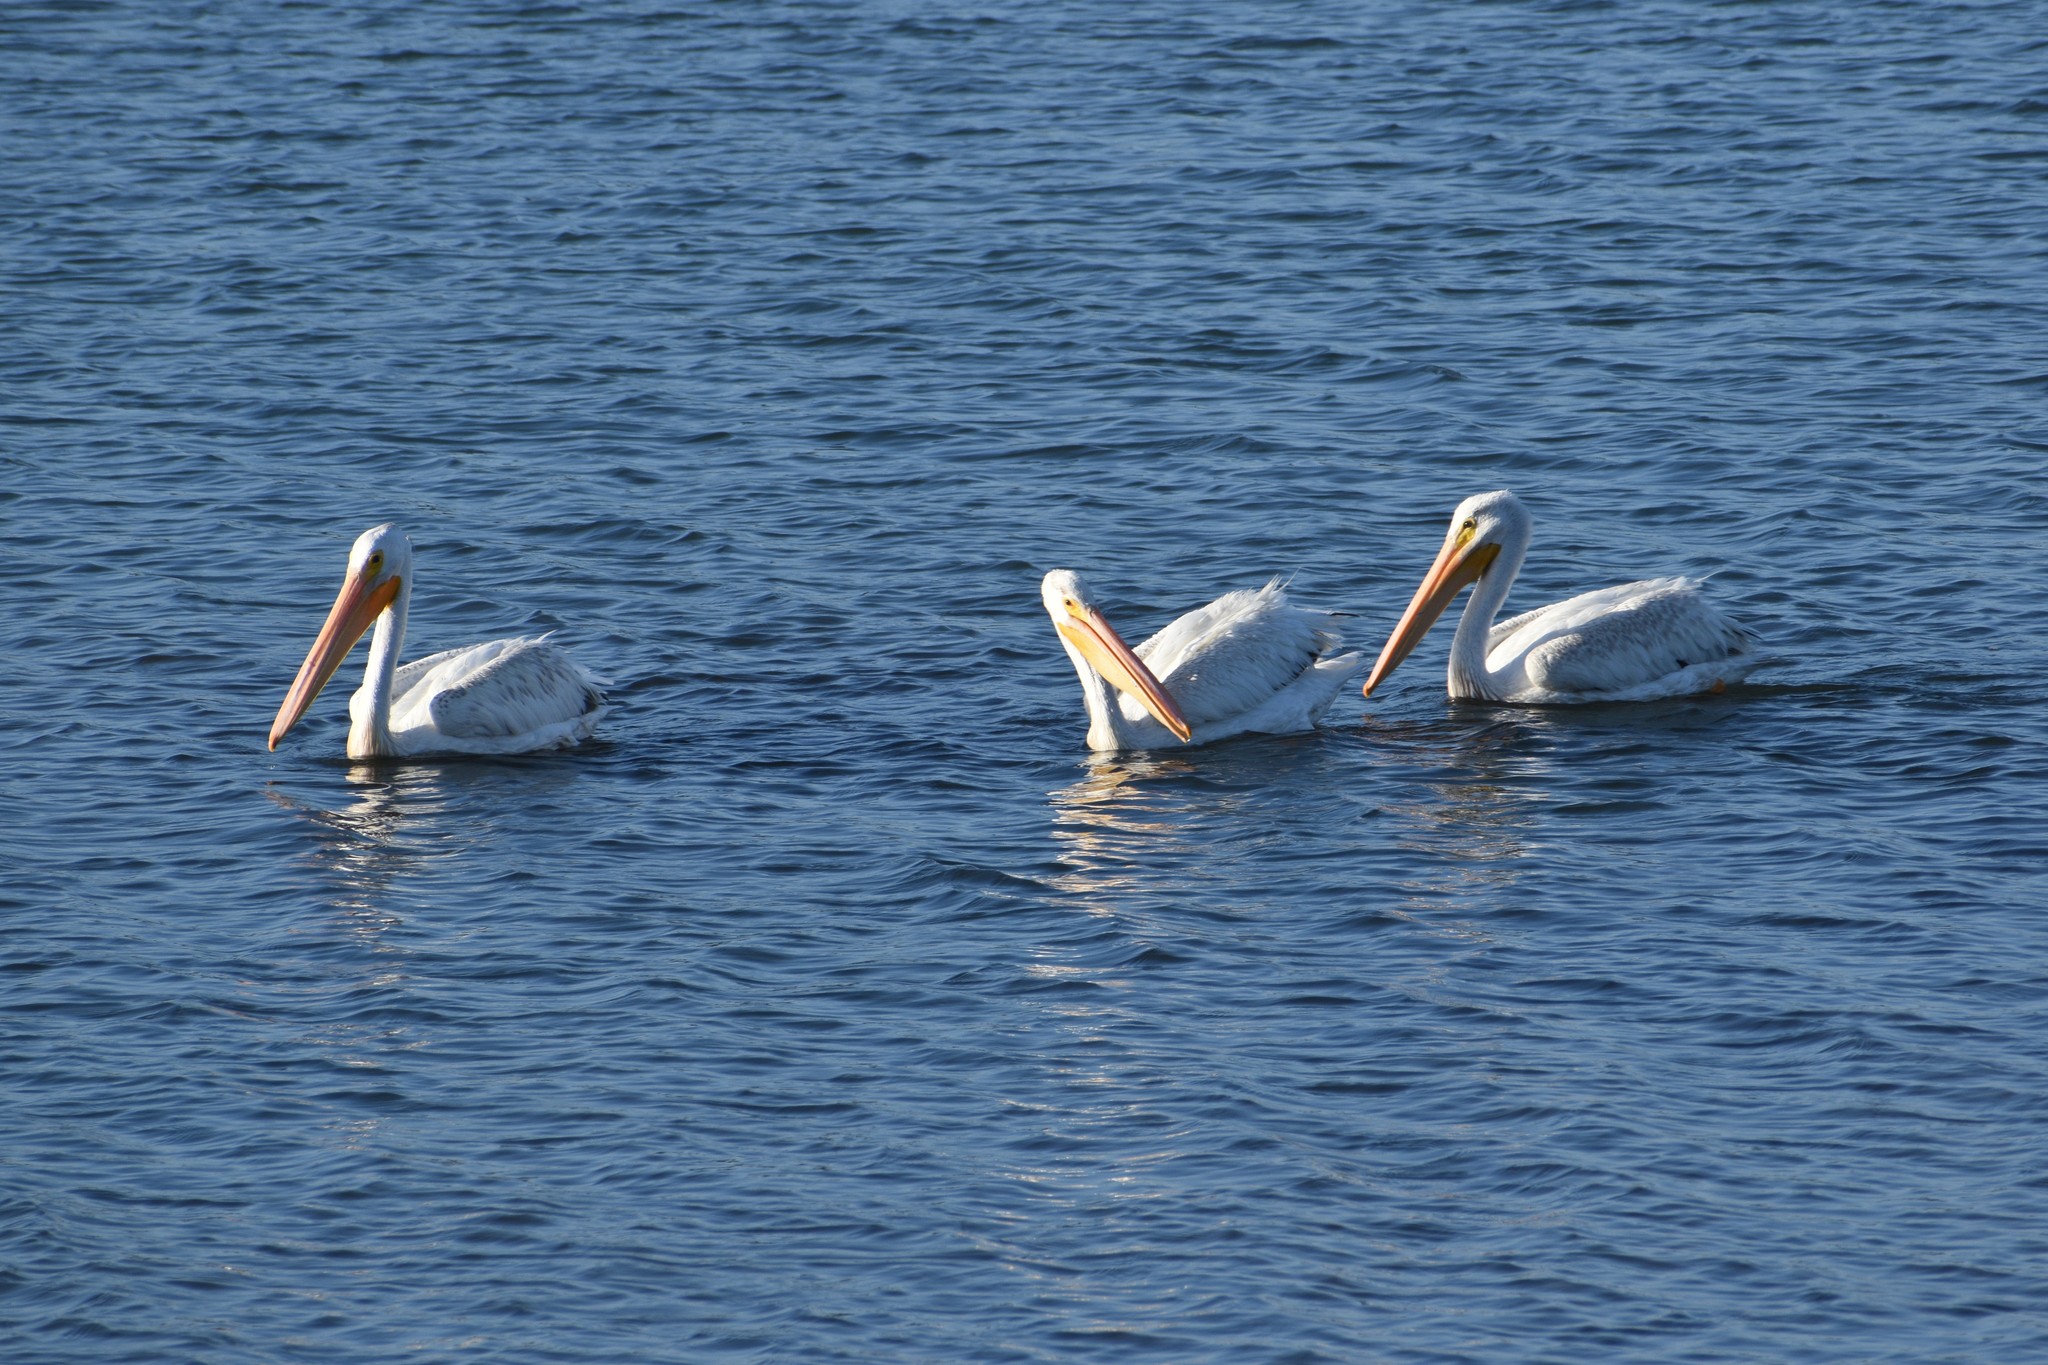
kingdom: Animalia
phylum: Chordata
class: Aves
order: Pelecaniformes
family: Pelecanidae
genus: Pelecanus
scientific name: Pelecanus erythrorhynchos
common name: American white pelican
